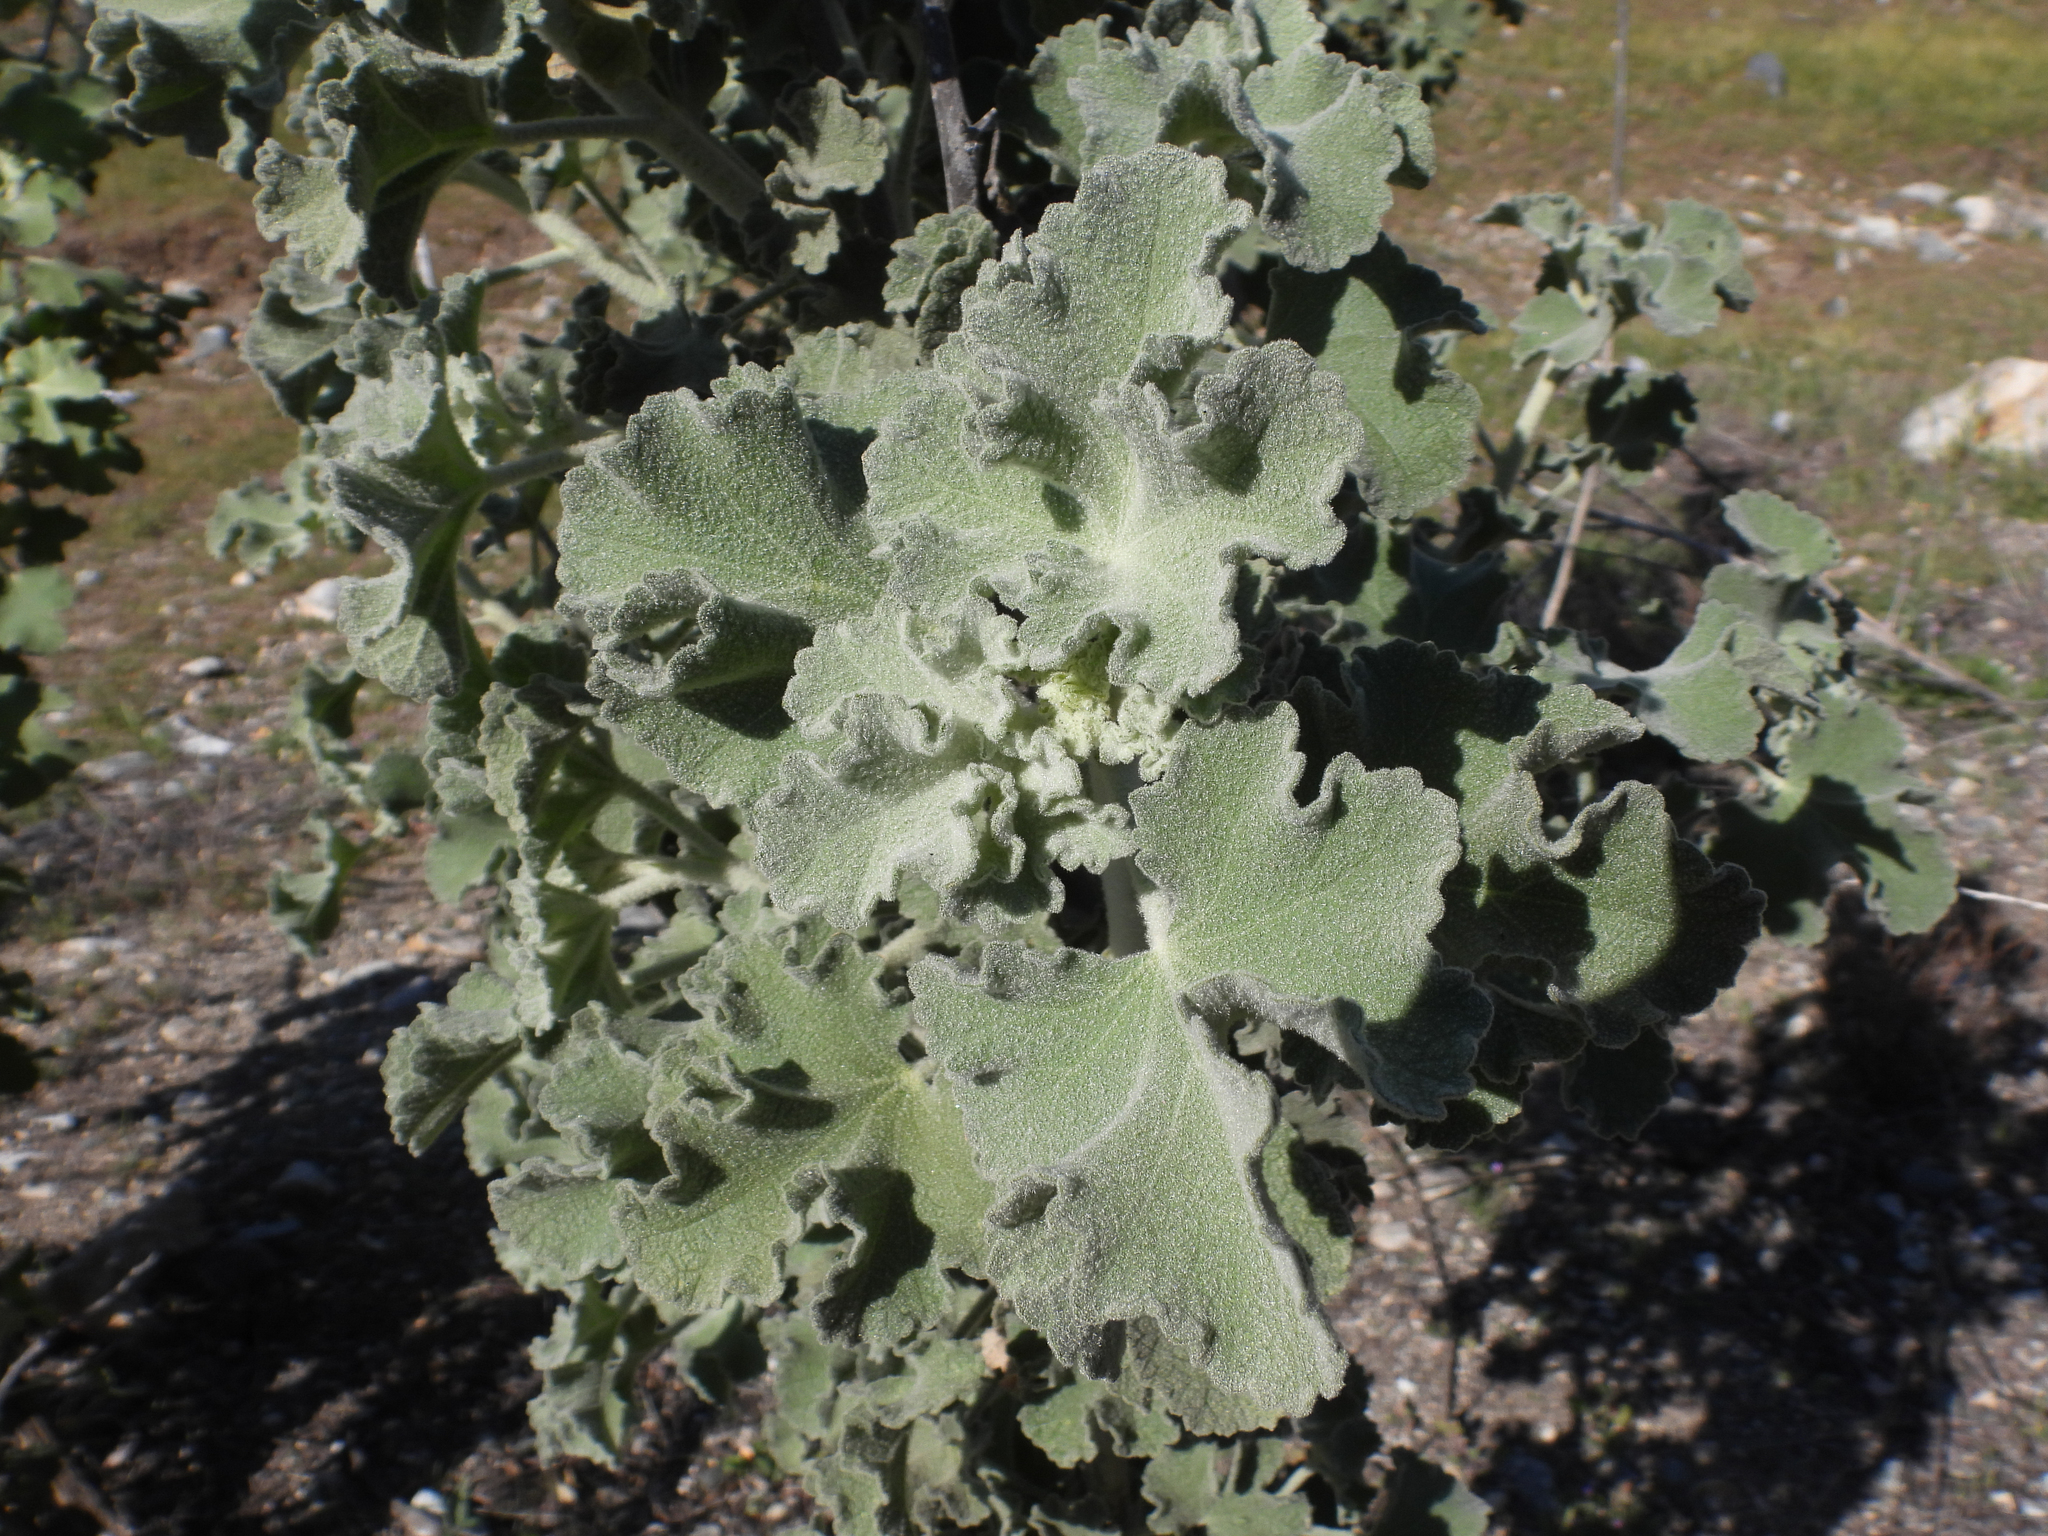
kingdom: Plantae
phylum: Tracheophyta
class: Magnoliopsida
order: Malvales
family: Malvaceae
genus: Malacothamnus
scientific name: Malacothamnus davidsonii
